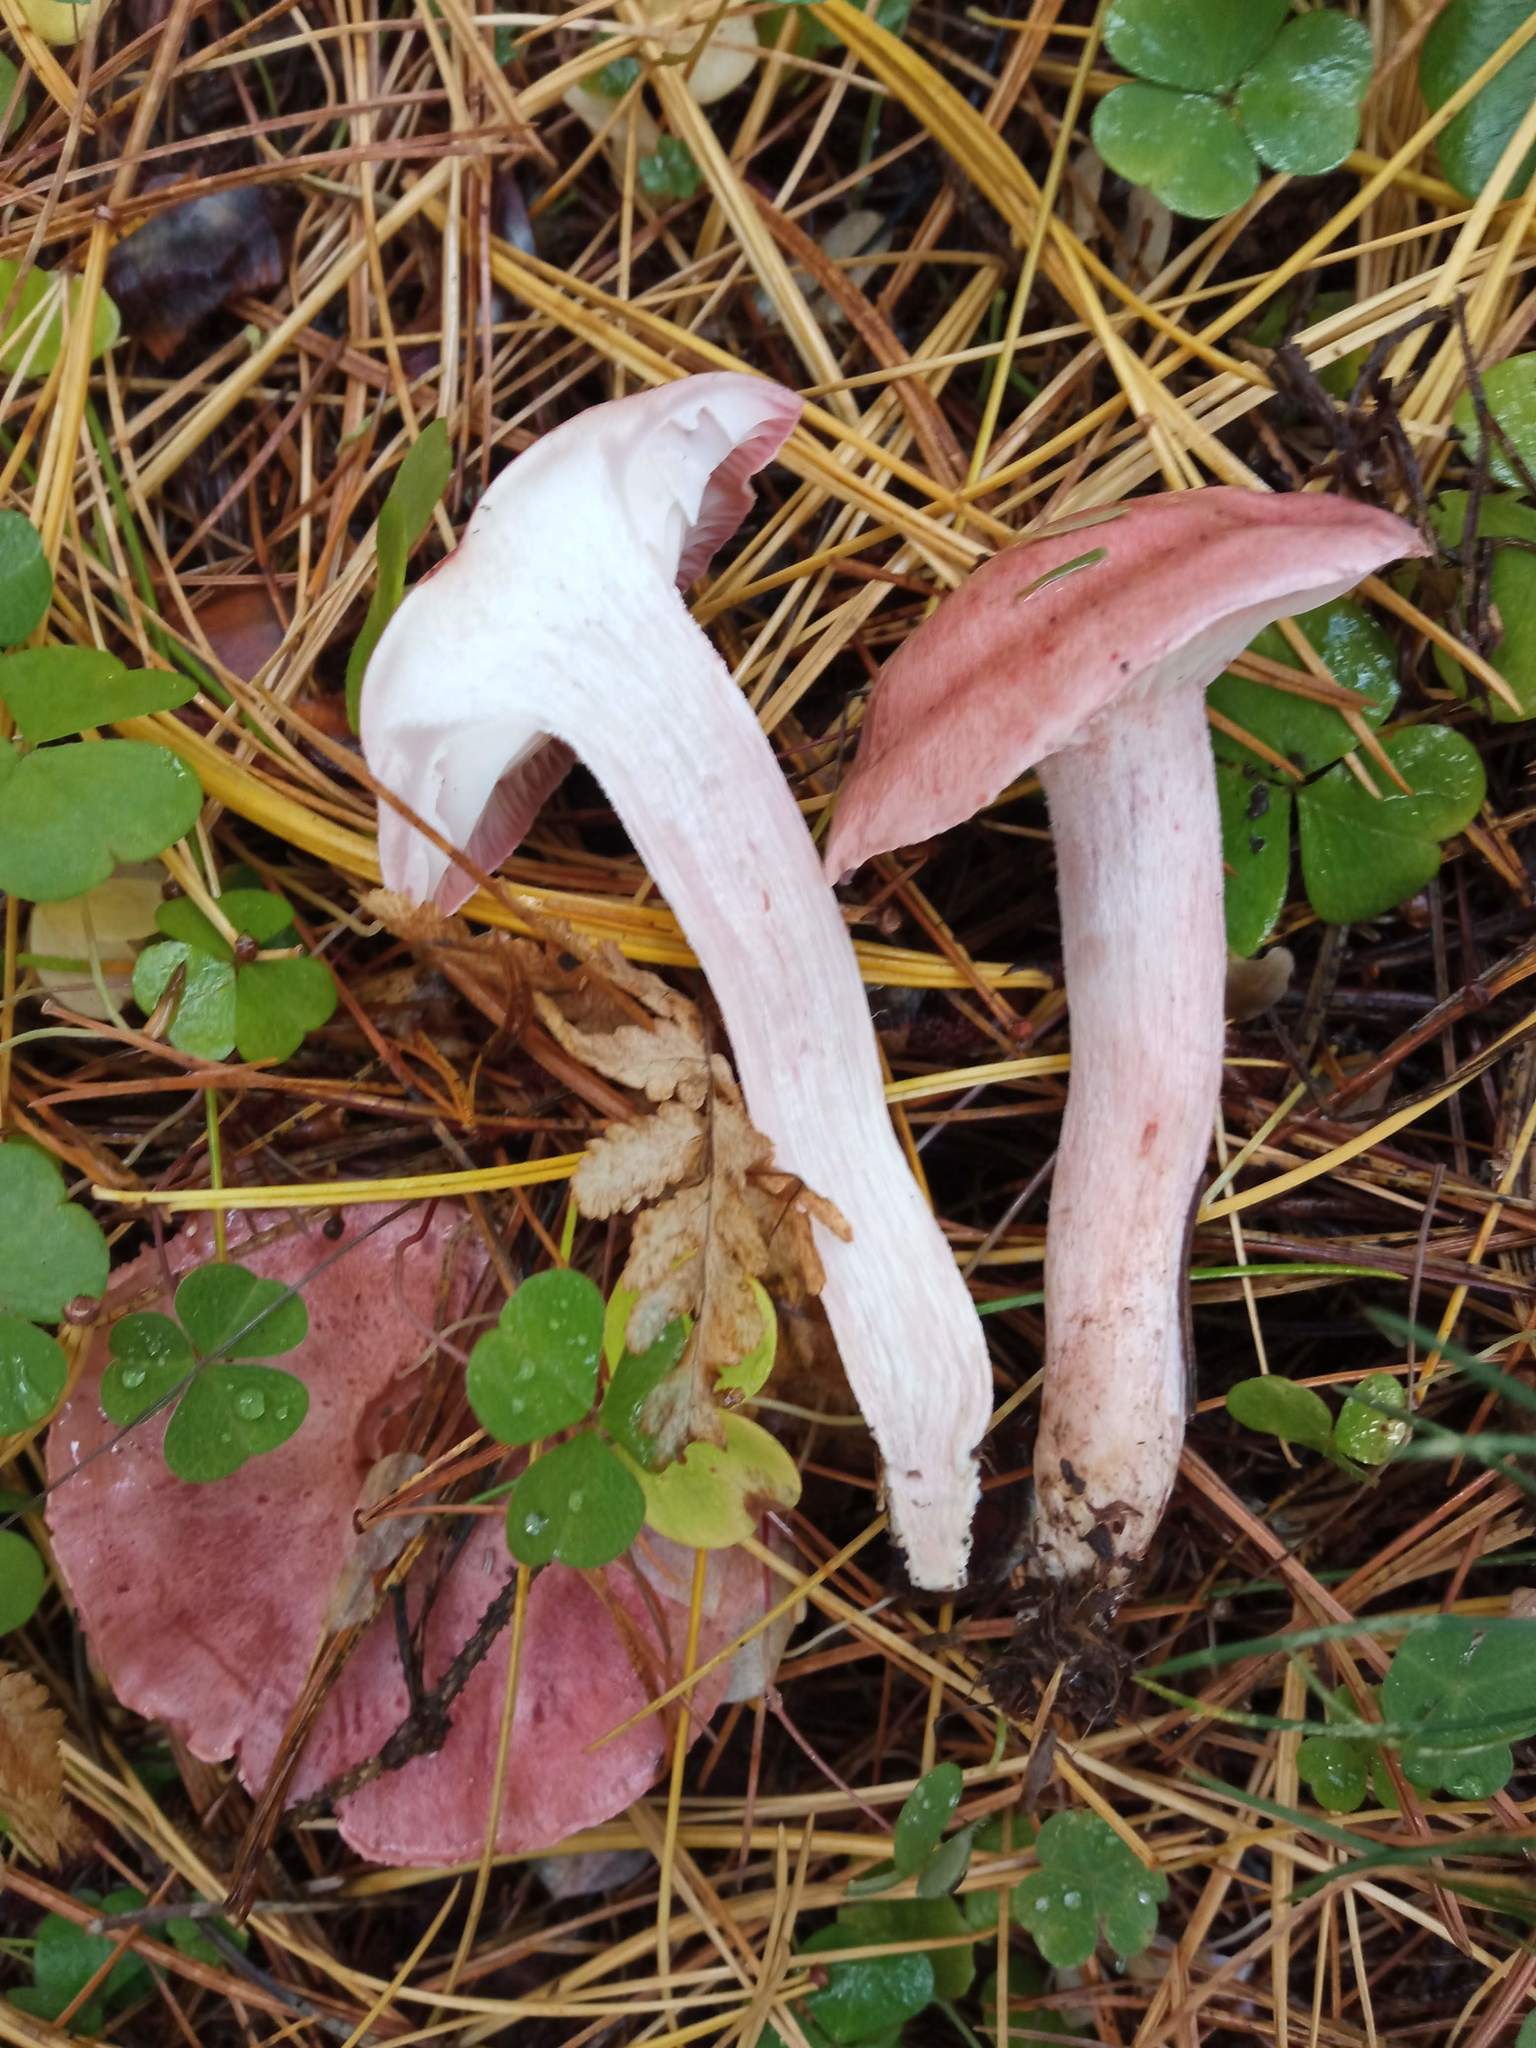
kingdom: Fungi
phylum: Basidiomycota
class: Agaricomycetes
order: Agaricales
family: Hygrophoraceae
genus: Hygrophorus
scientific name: Hygrophorus erubescens
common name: Blotched woodwax
